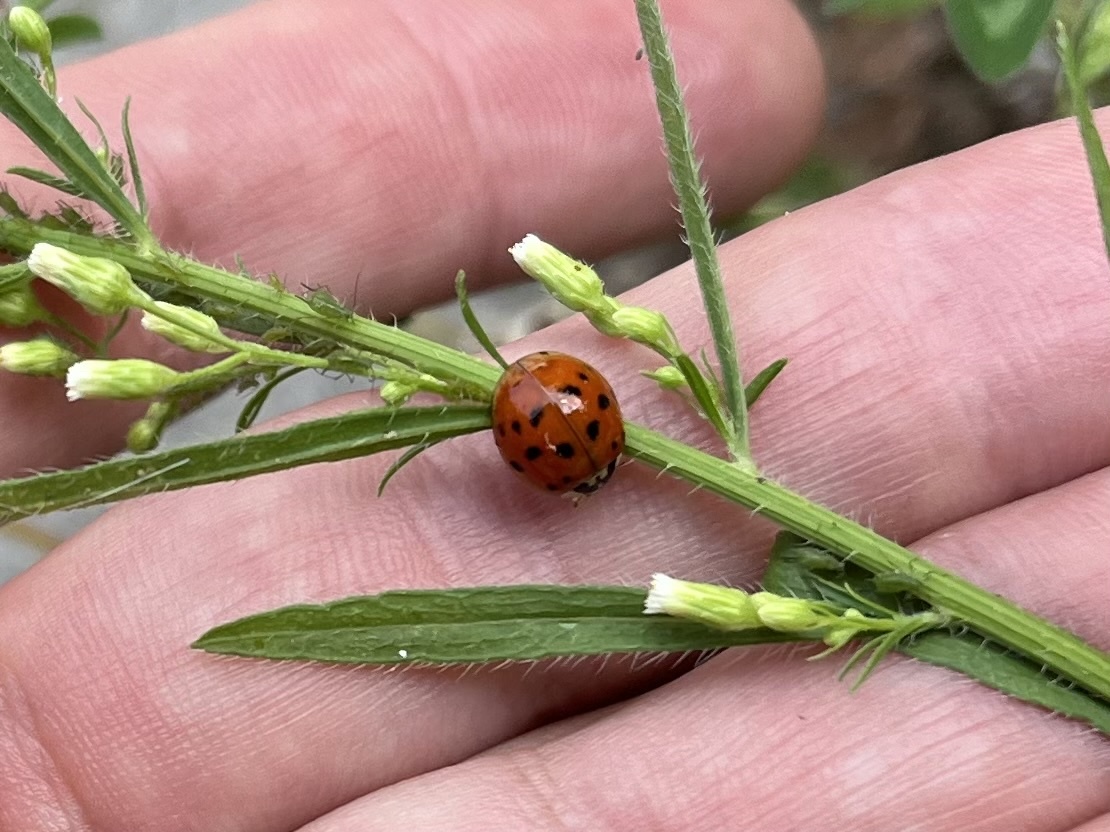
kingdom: Animalia
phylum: Arthropoda
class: Insecta
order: Coleoptera
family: Coccinellidae
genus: Harmonia
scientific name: Harmonia axyridis
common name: Harlequin ladybird
